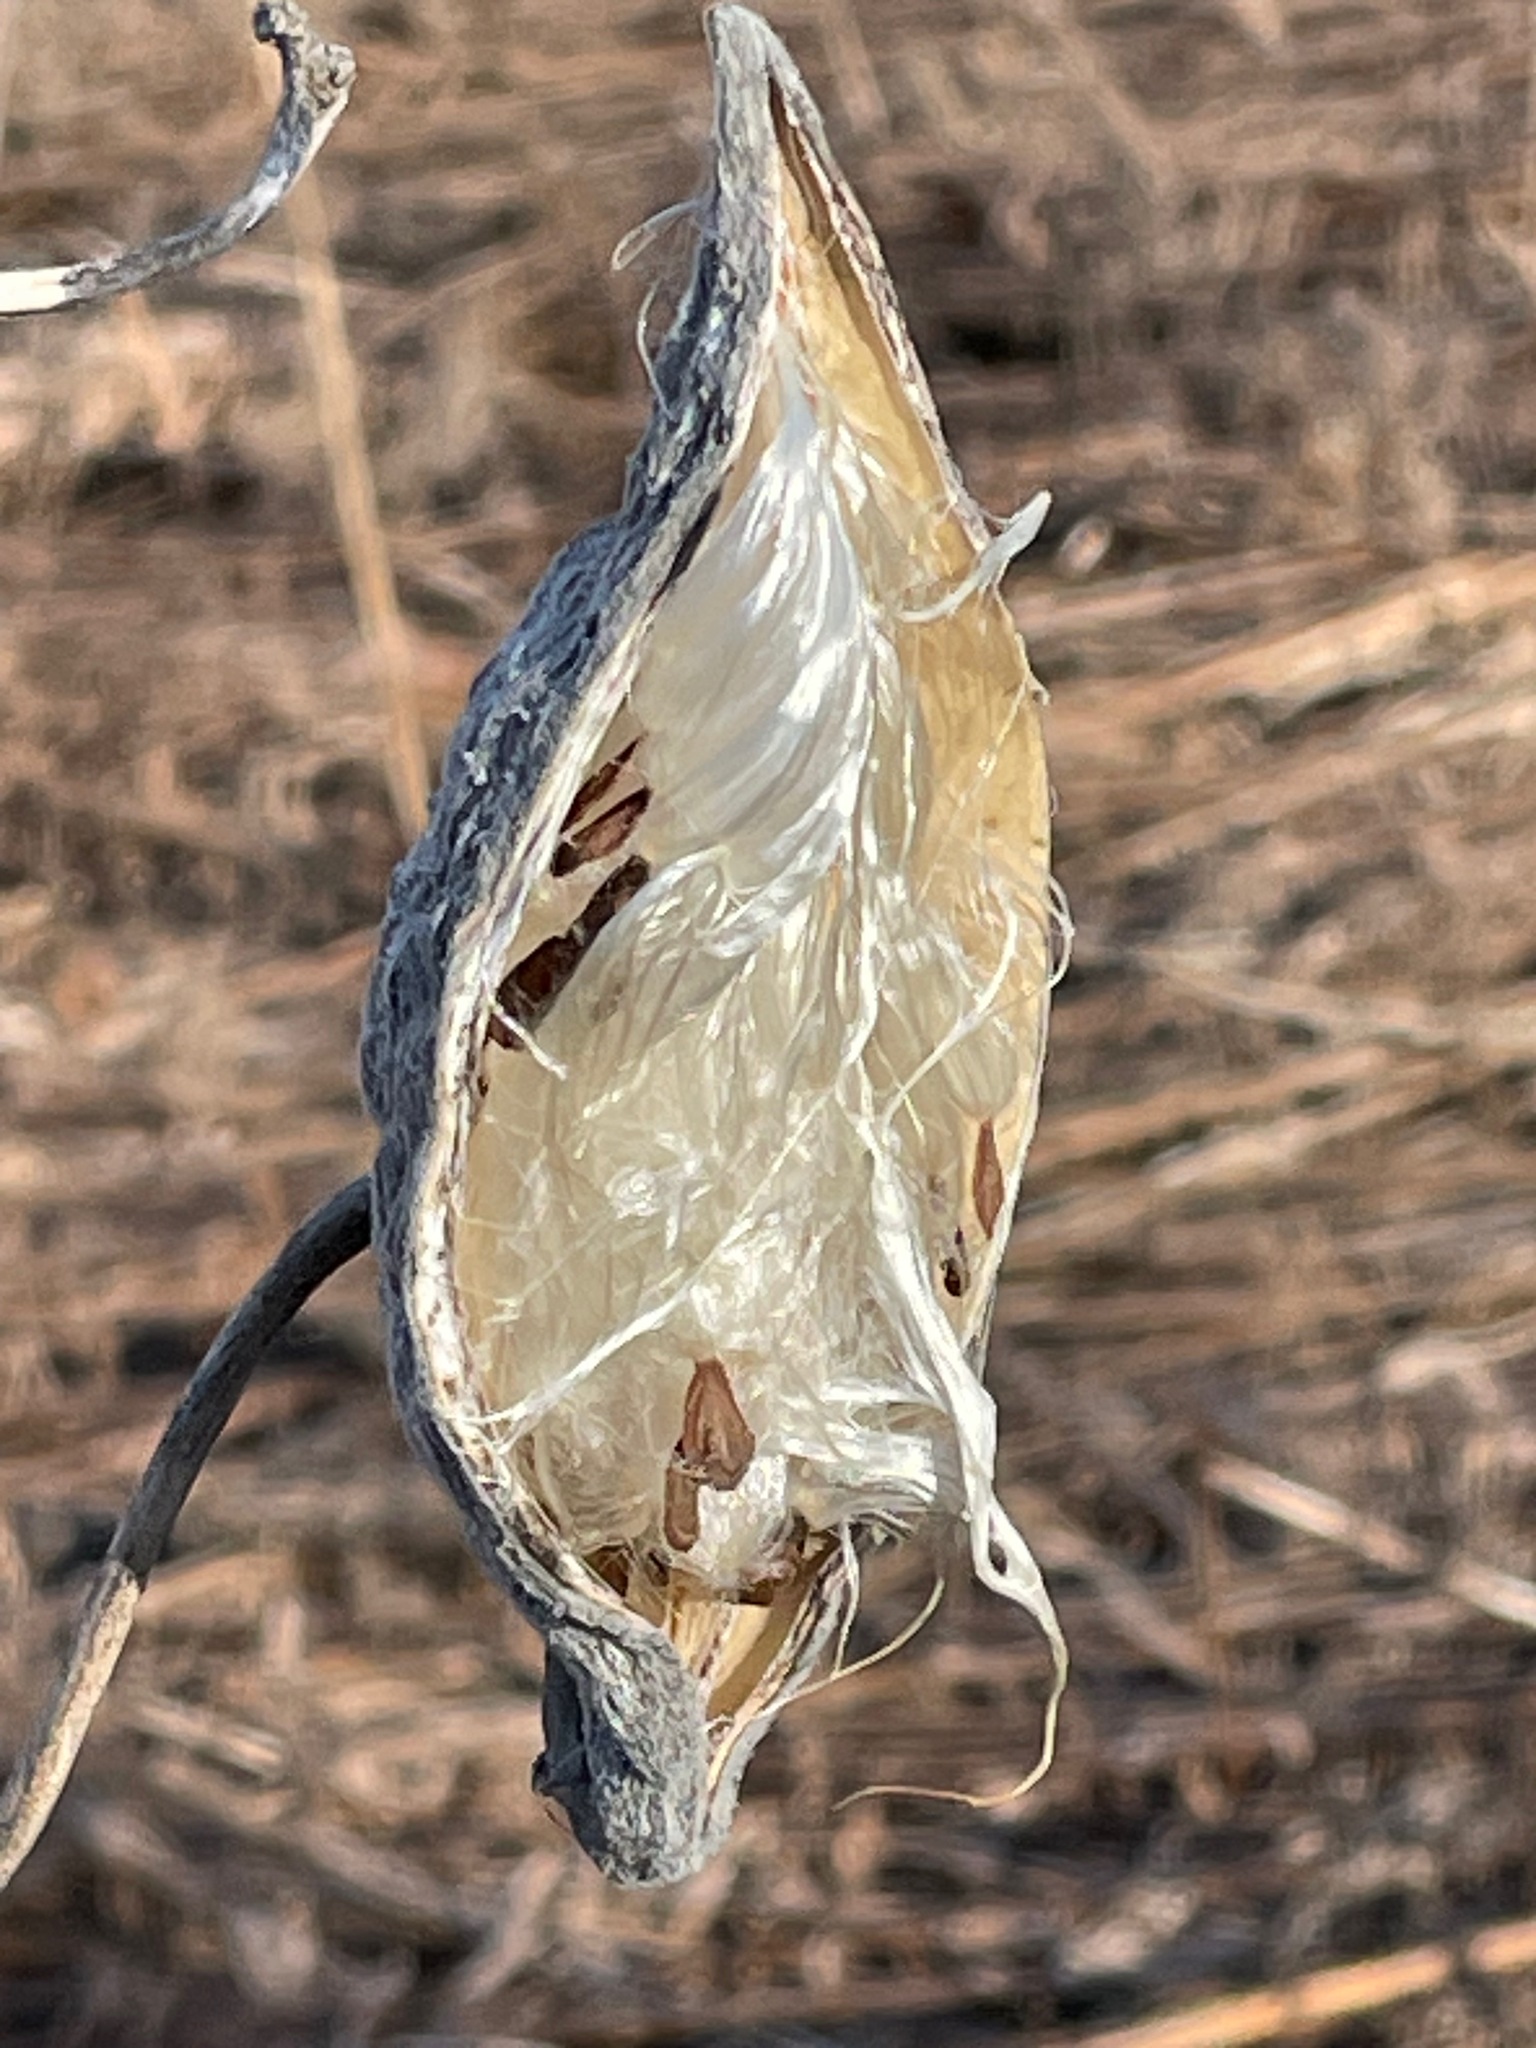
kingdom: Plantae
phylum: Tracheophyta
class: Magnoliopsida
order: Gentianales
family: Apocynaceae
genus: Asclepias
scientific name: Asclepias syriaca
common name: Common milkweed
